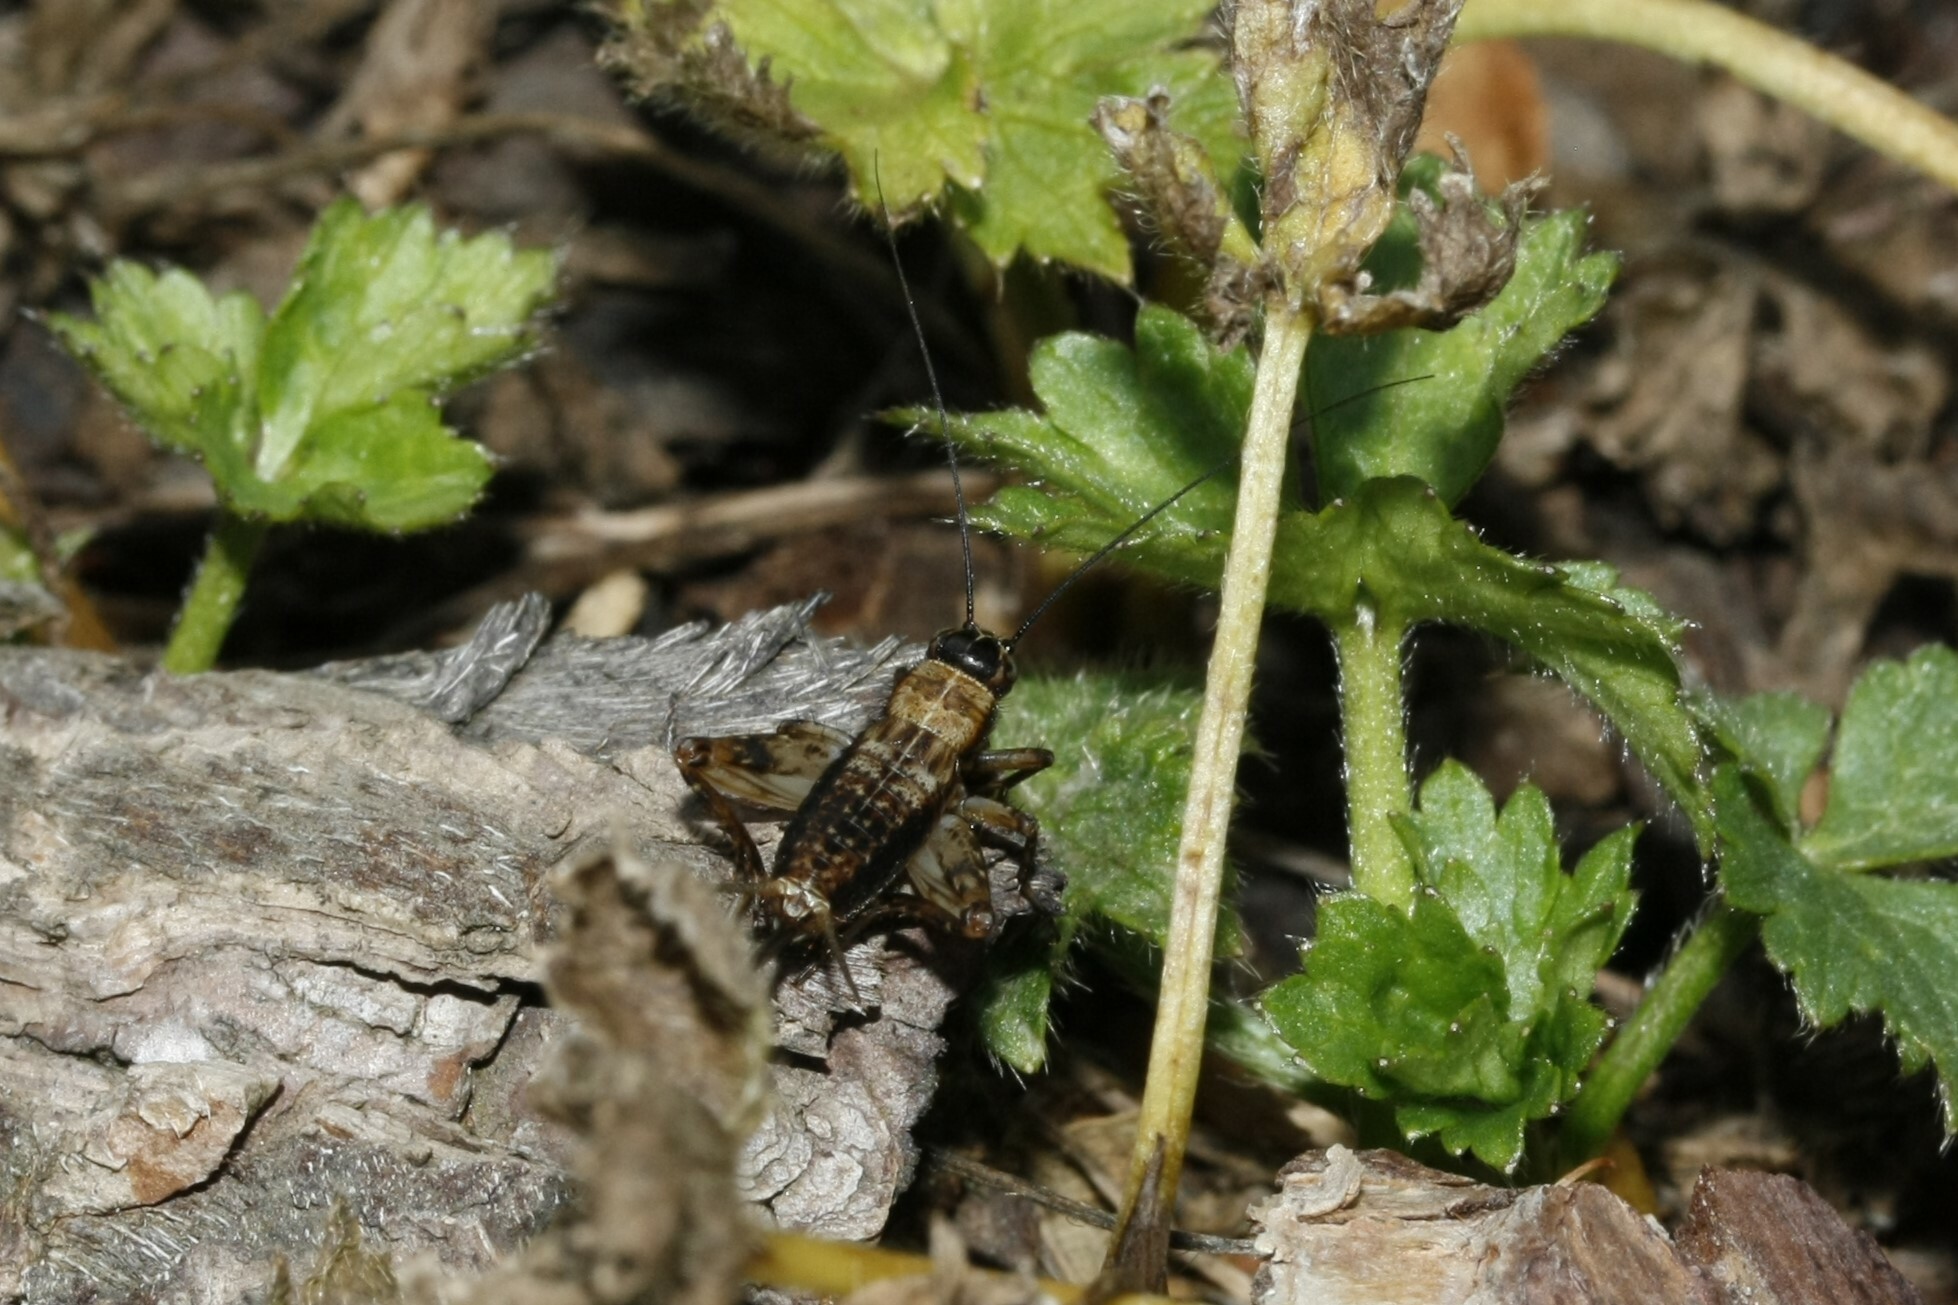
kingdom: Animalia
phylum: Arthropoda
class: Insecta
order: Orthoptera
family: Trigonidiidae
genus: Nemobius
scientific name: Nemobius sylvestris
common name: Wood-cricket
